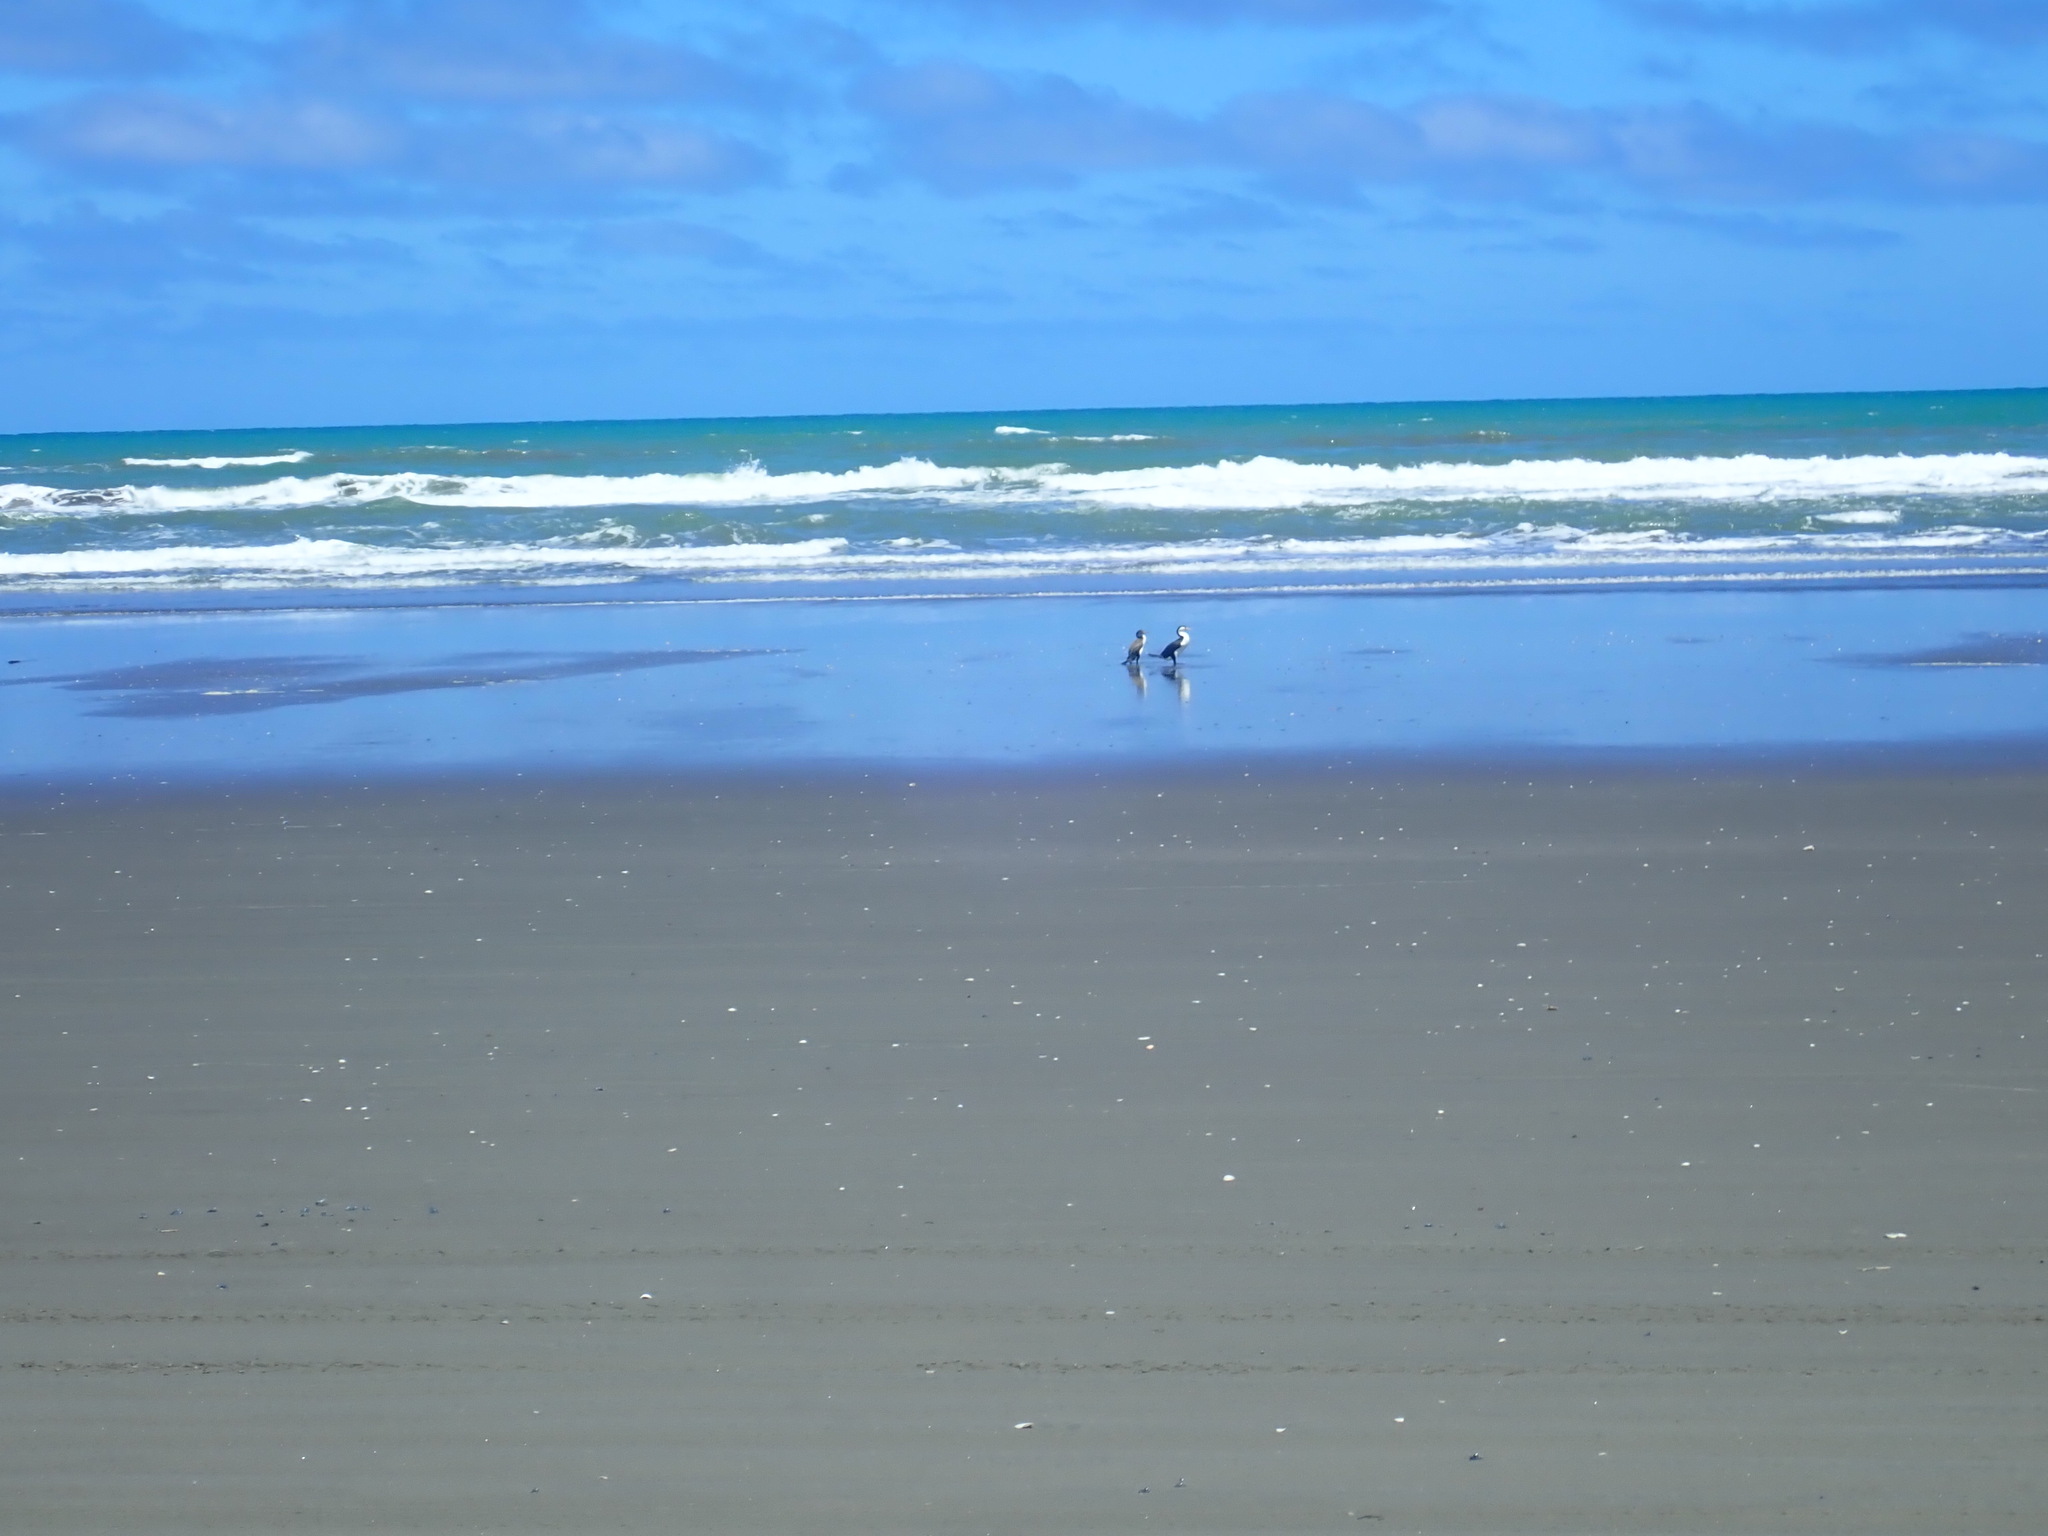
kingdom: Animalia
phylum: Chordata
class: Aves
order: Suliformes
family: Phalacrocoracidae
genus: Phalacrocorax
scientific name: Phalacrocorax varius
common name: Pied cormorant
